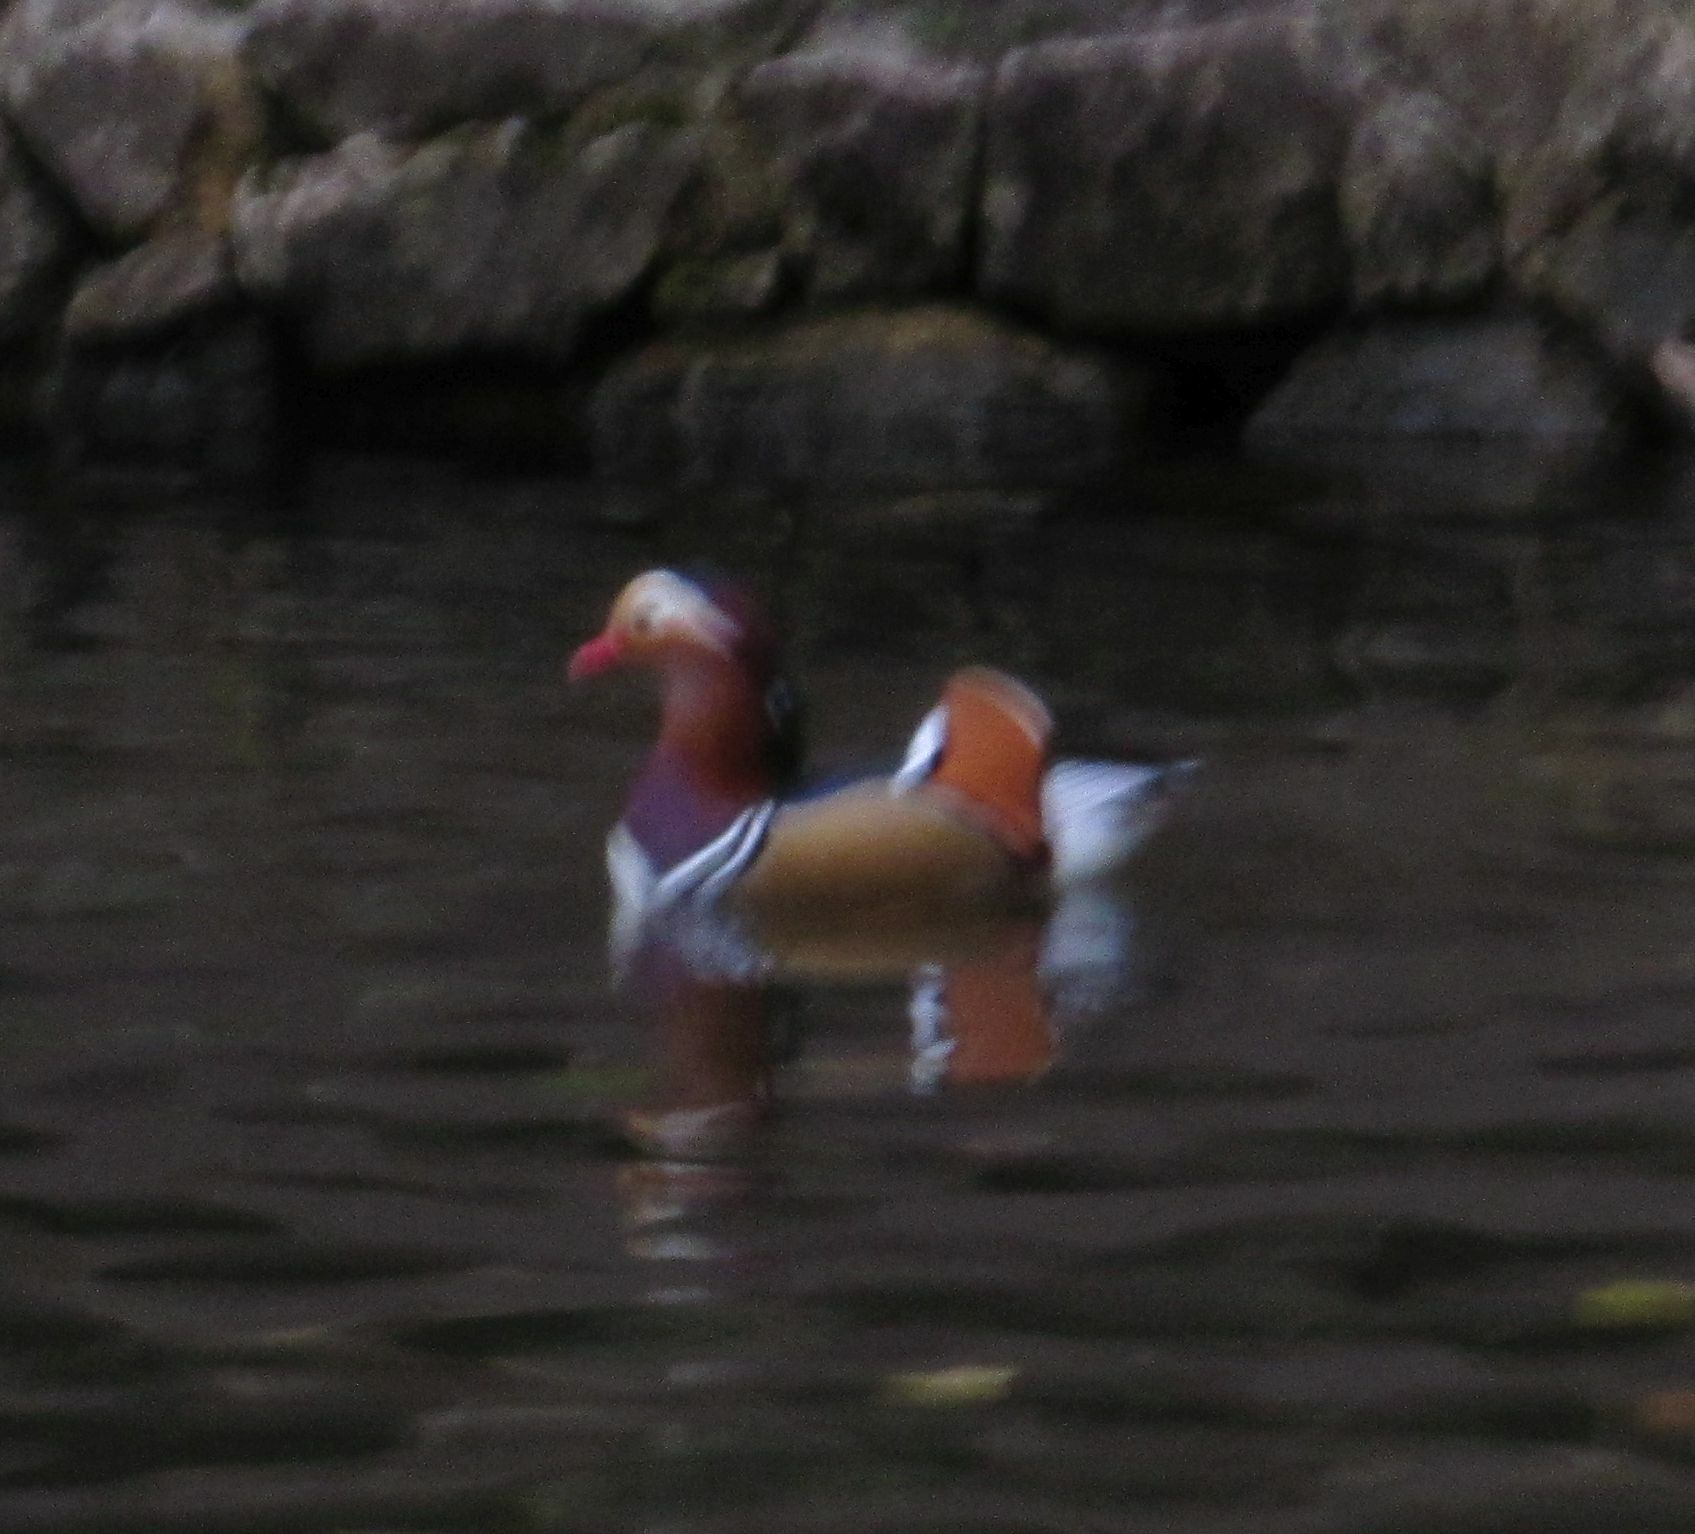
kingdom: Animalia
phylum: Chordata
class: Aves
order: Anseriformes
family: Anatidae
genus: Aix
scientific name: Aix galericulata
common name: Mandarin duck
